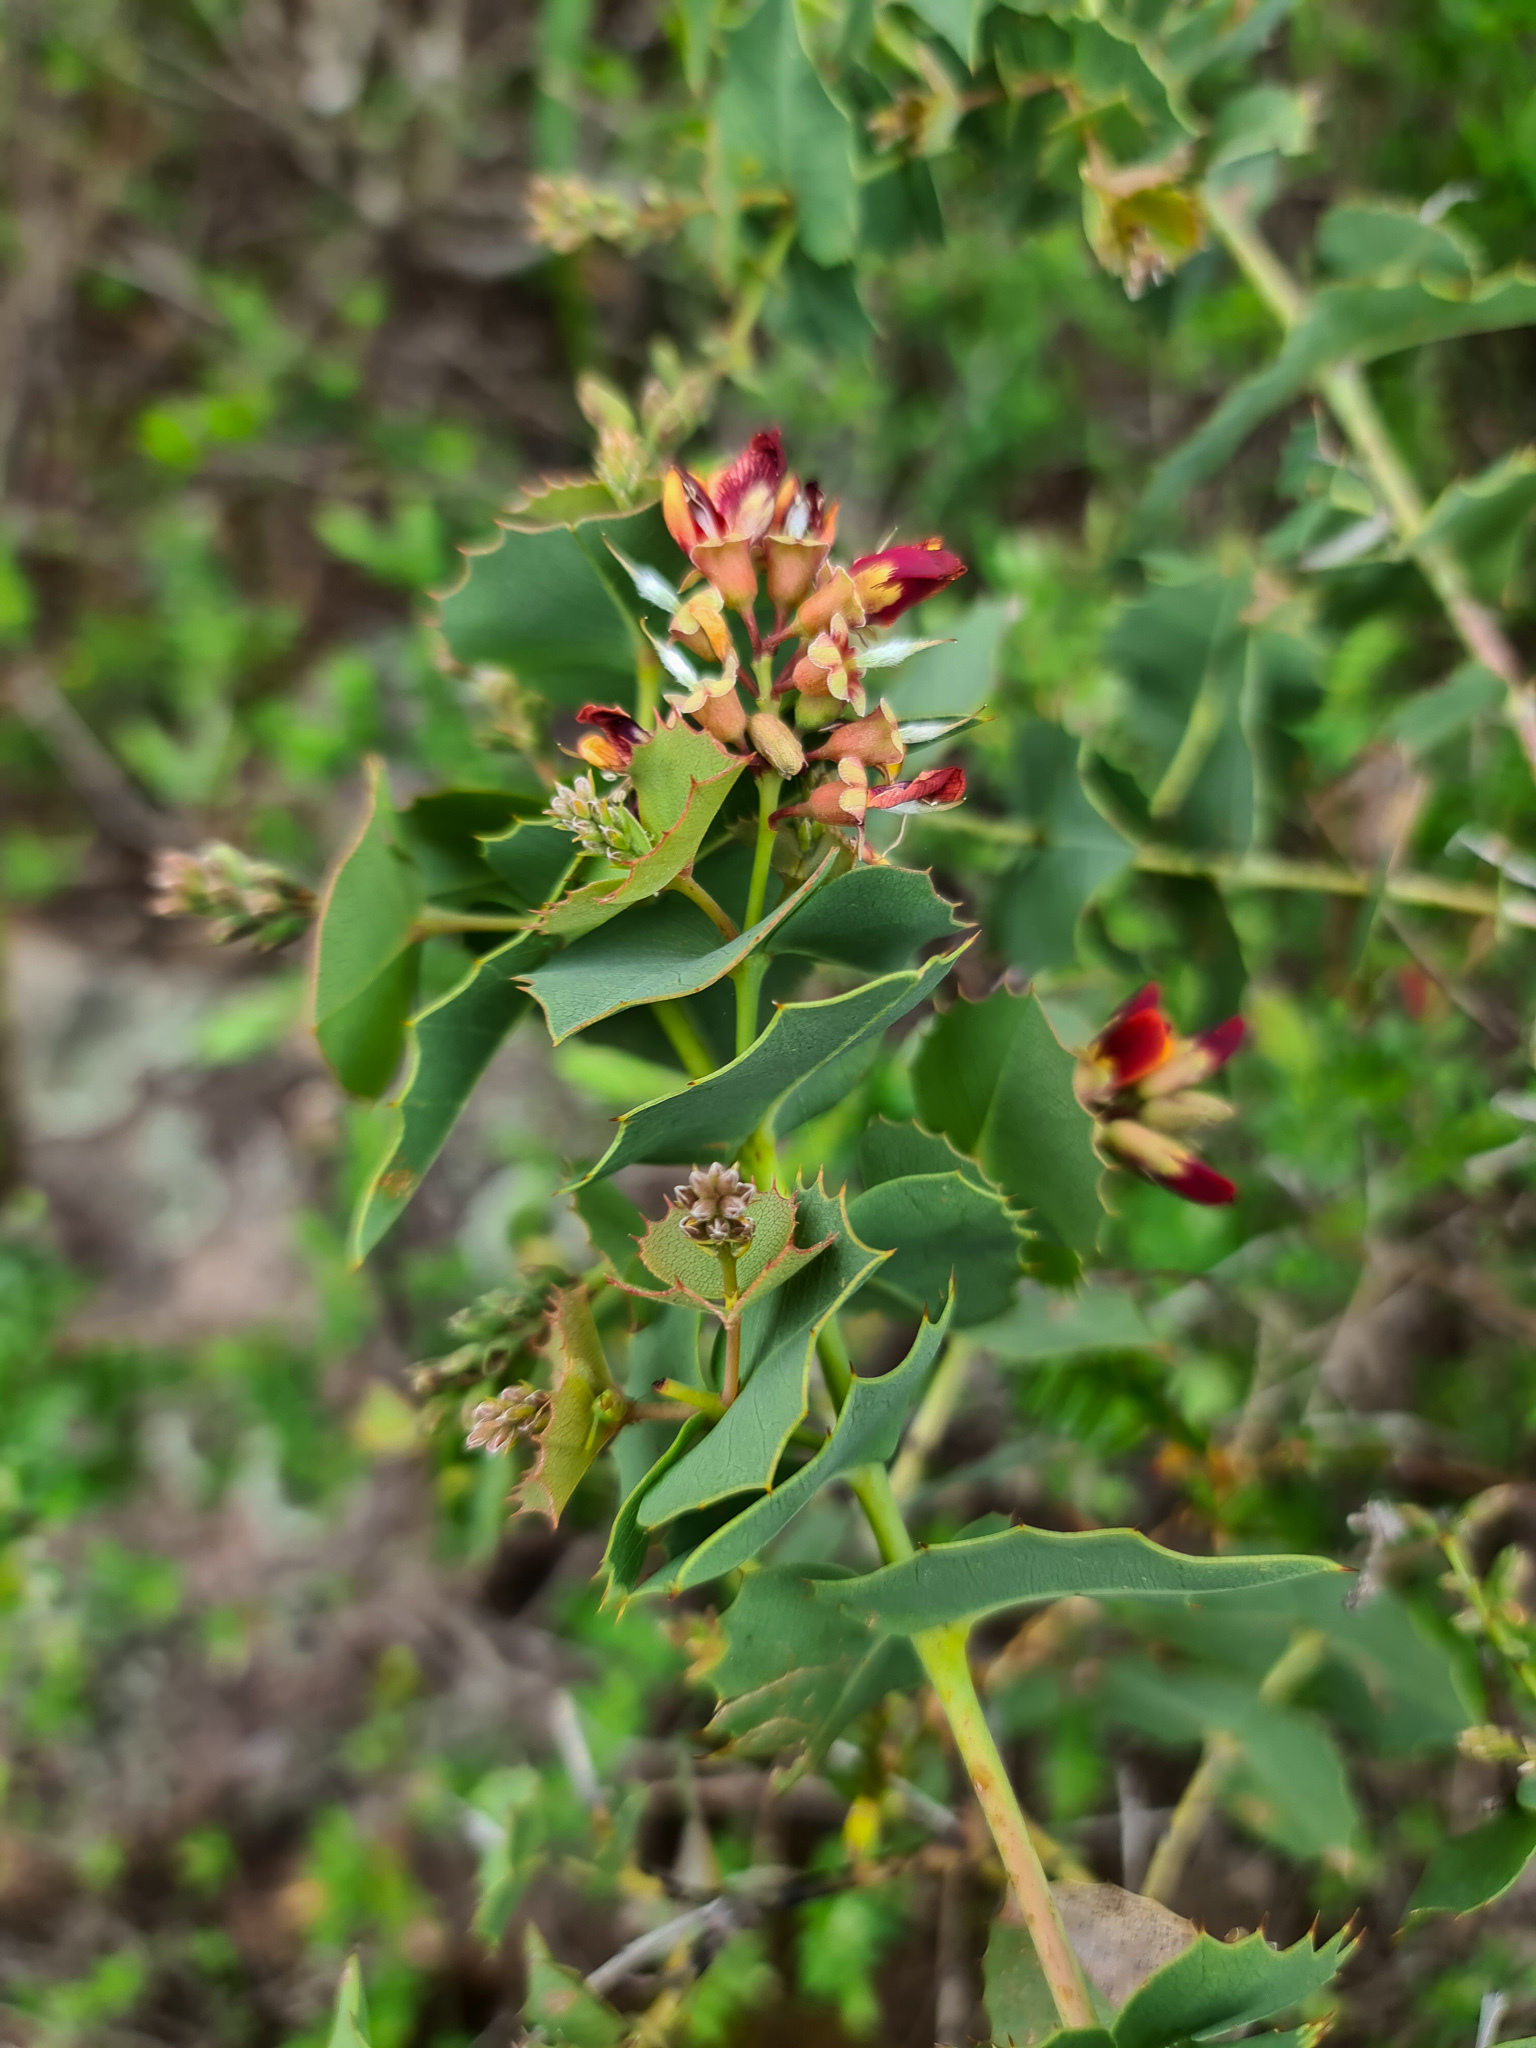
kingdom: Plantae
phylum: Tracheophyta
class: Magnoliopsida
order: Fabales
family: Fabaceae
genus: Gastrolobium
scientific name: Gastrolobium spinosum
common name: Prickly poison
